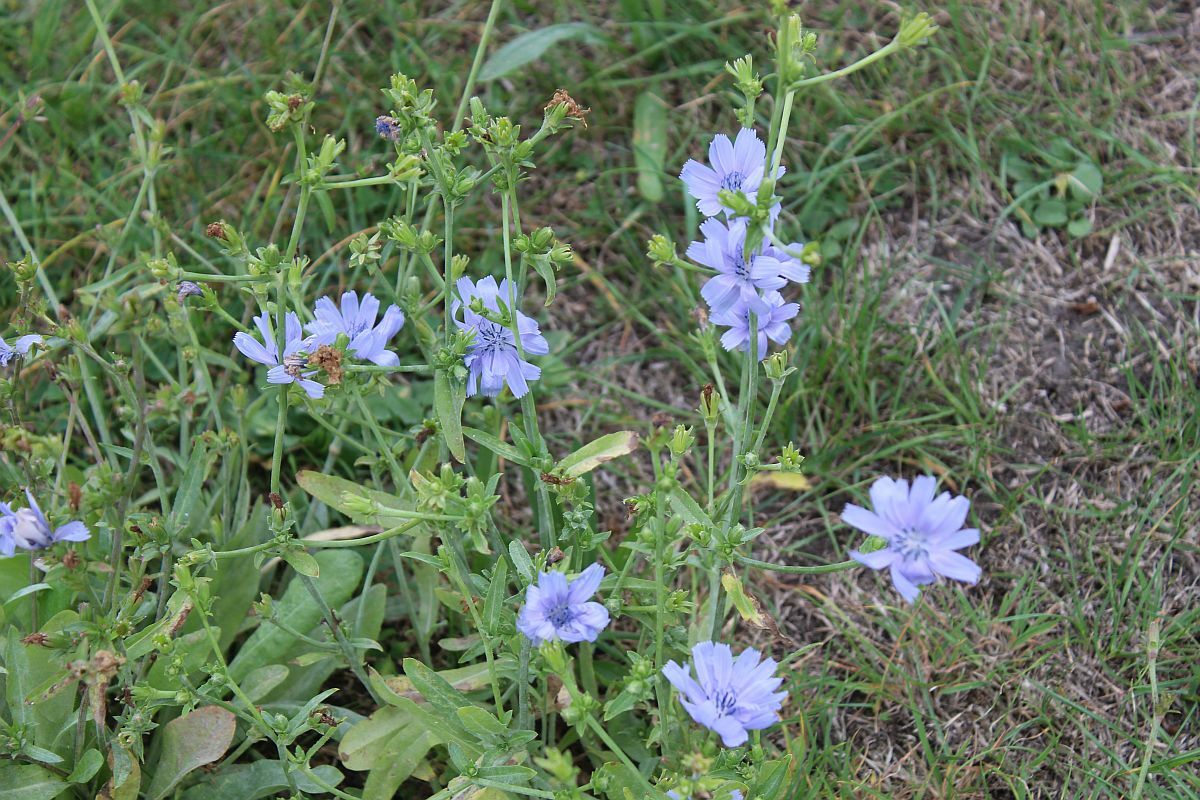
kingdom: Plantae
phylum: Tracheophyta
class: Magnoliopsida
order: Asterales
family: Asteraceae
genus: Cichorium
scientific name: Cichorium intybus
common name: Chicory
